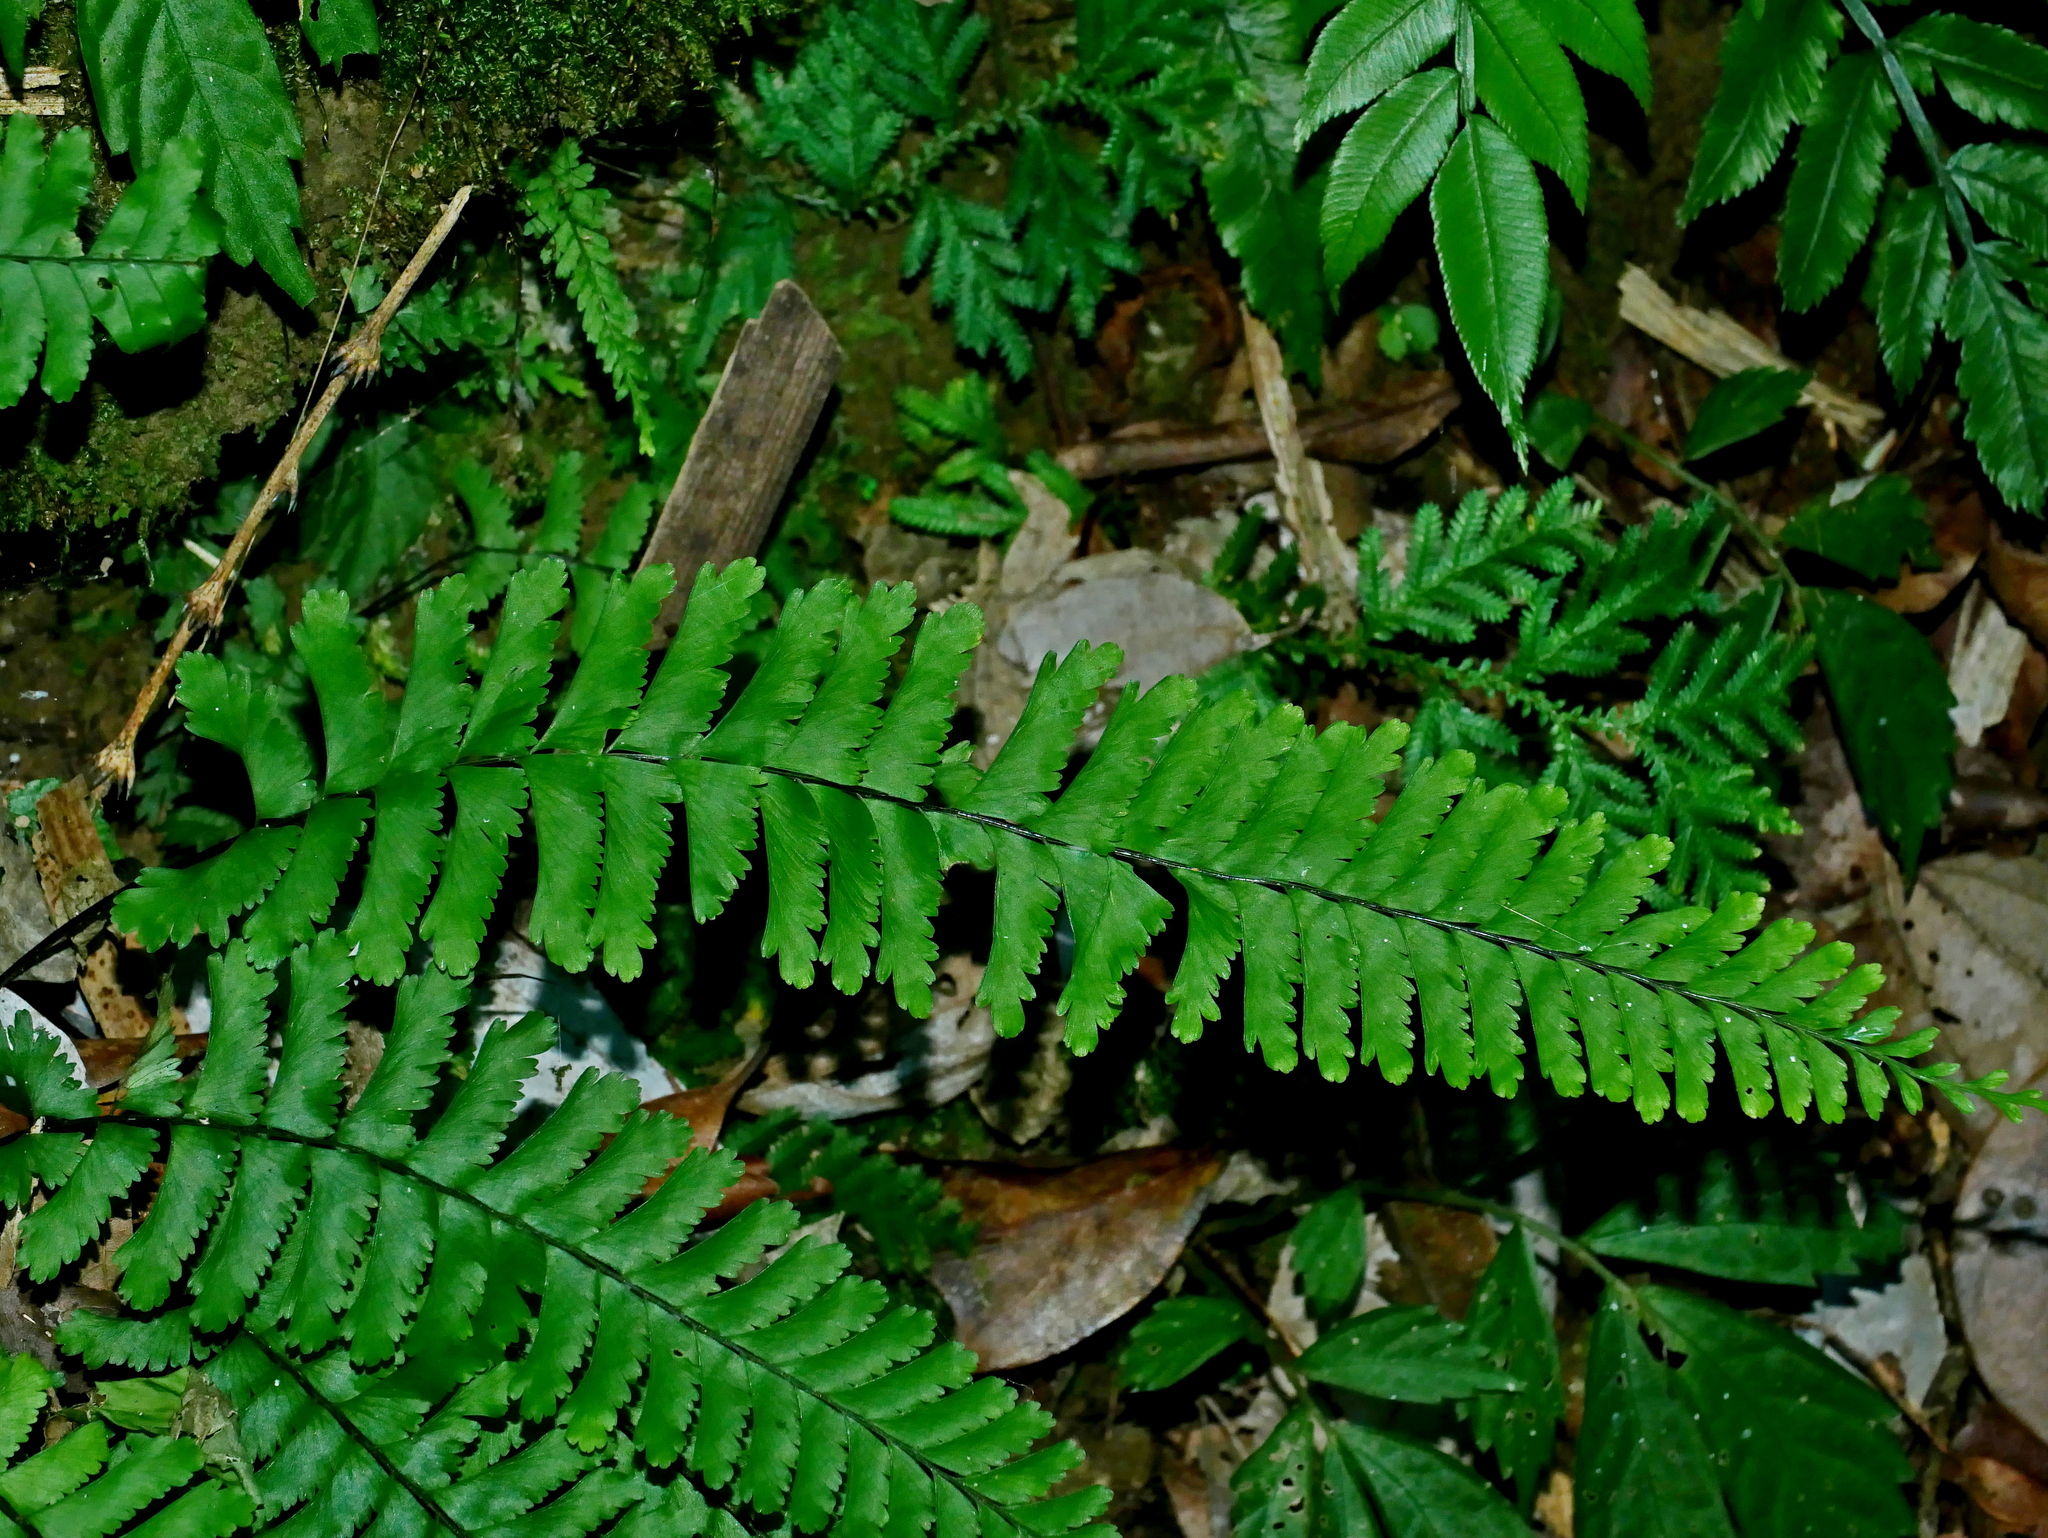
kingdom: Plantae
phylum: Tracheophyta
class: Polypodiopsida
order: Polypodiales
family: Aspleniaceae
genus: Hymenasplenium
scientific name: Hymenasplenium cheilosorum
